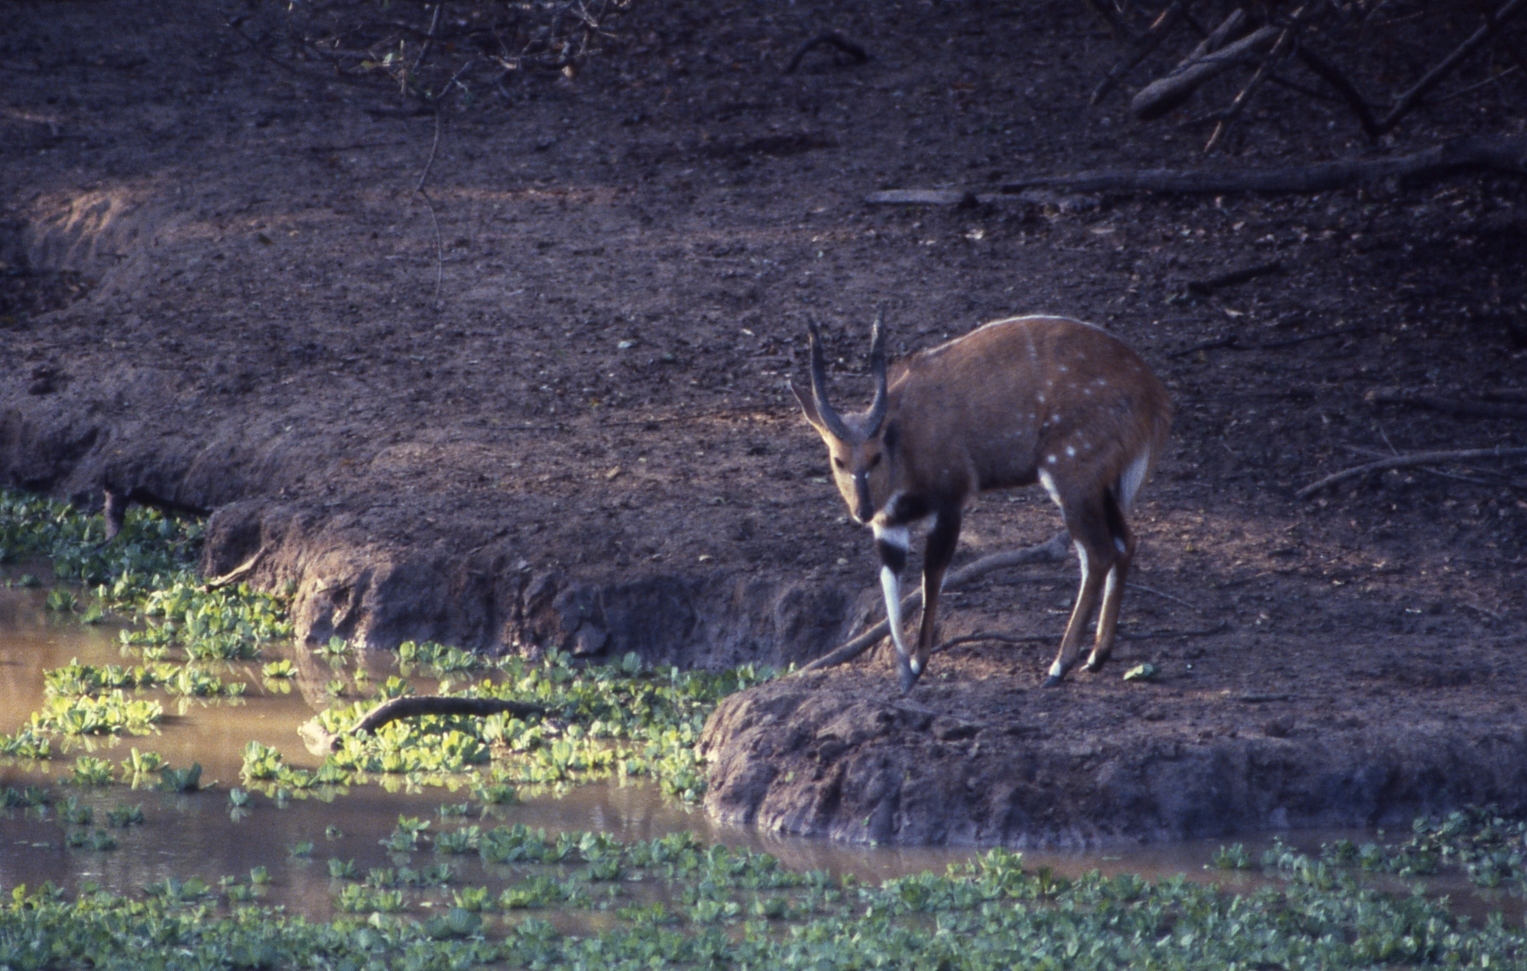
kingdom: Animalia
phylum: Chordata
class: Mammalia
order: Artiodactyla
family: Bovidae
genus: Tragelaphus
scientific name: Tragelaphus scriptus
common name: Bushbuck
